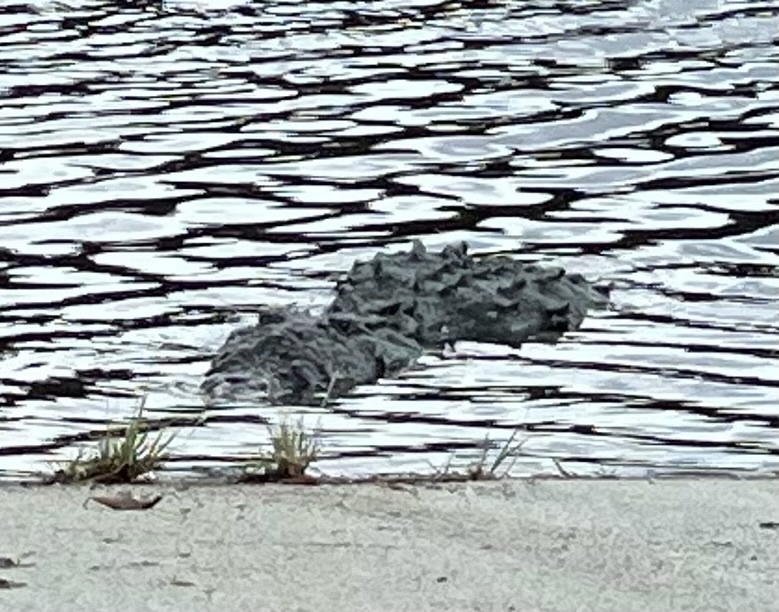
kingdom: Animalia
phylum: Chordata
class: Crocodylia
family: Crocodylidae
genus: Crocodylus
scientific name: Crocodylus acutus
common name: American crocodile
